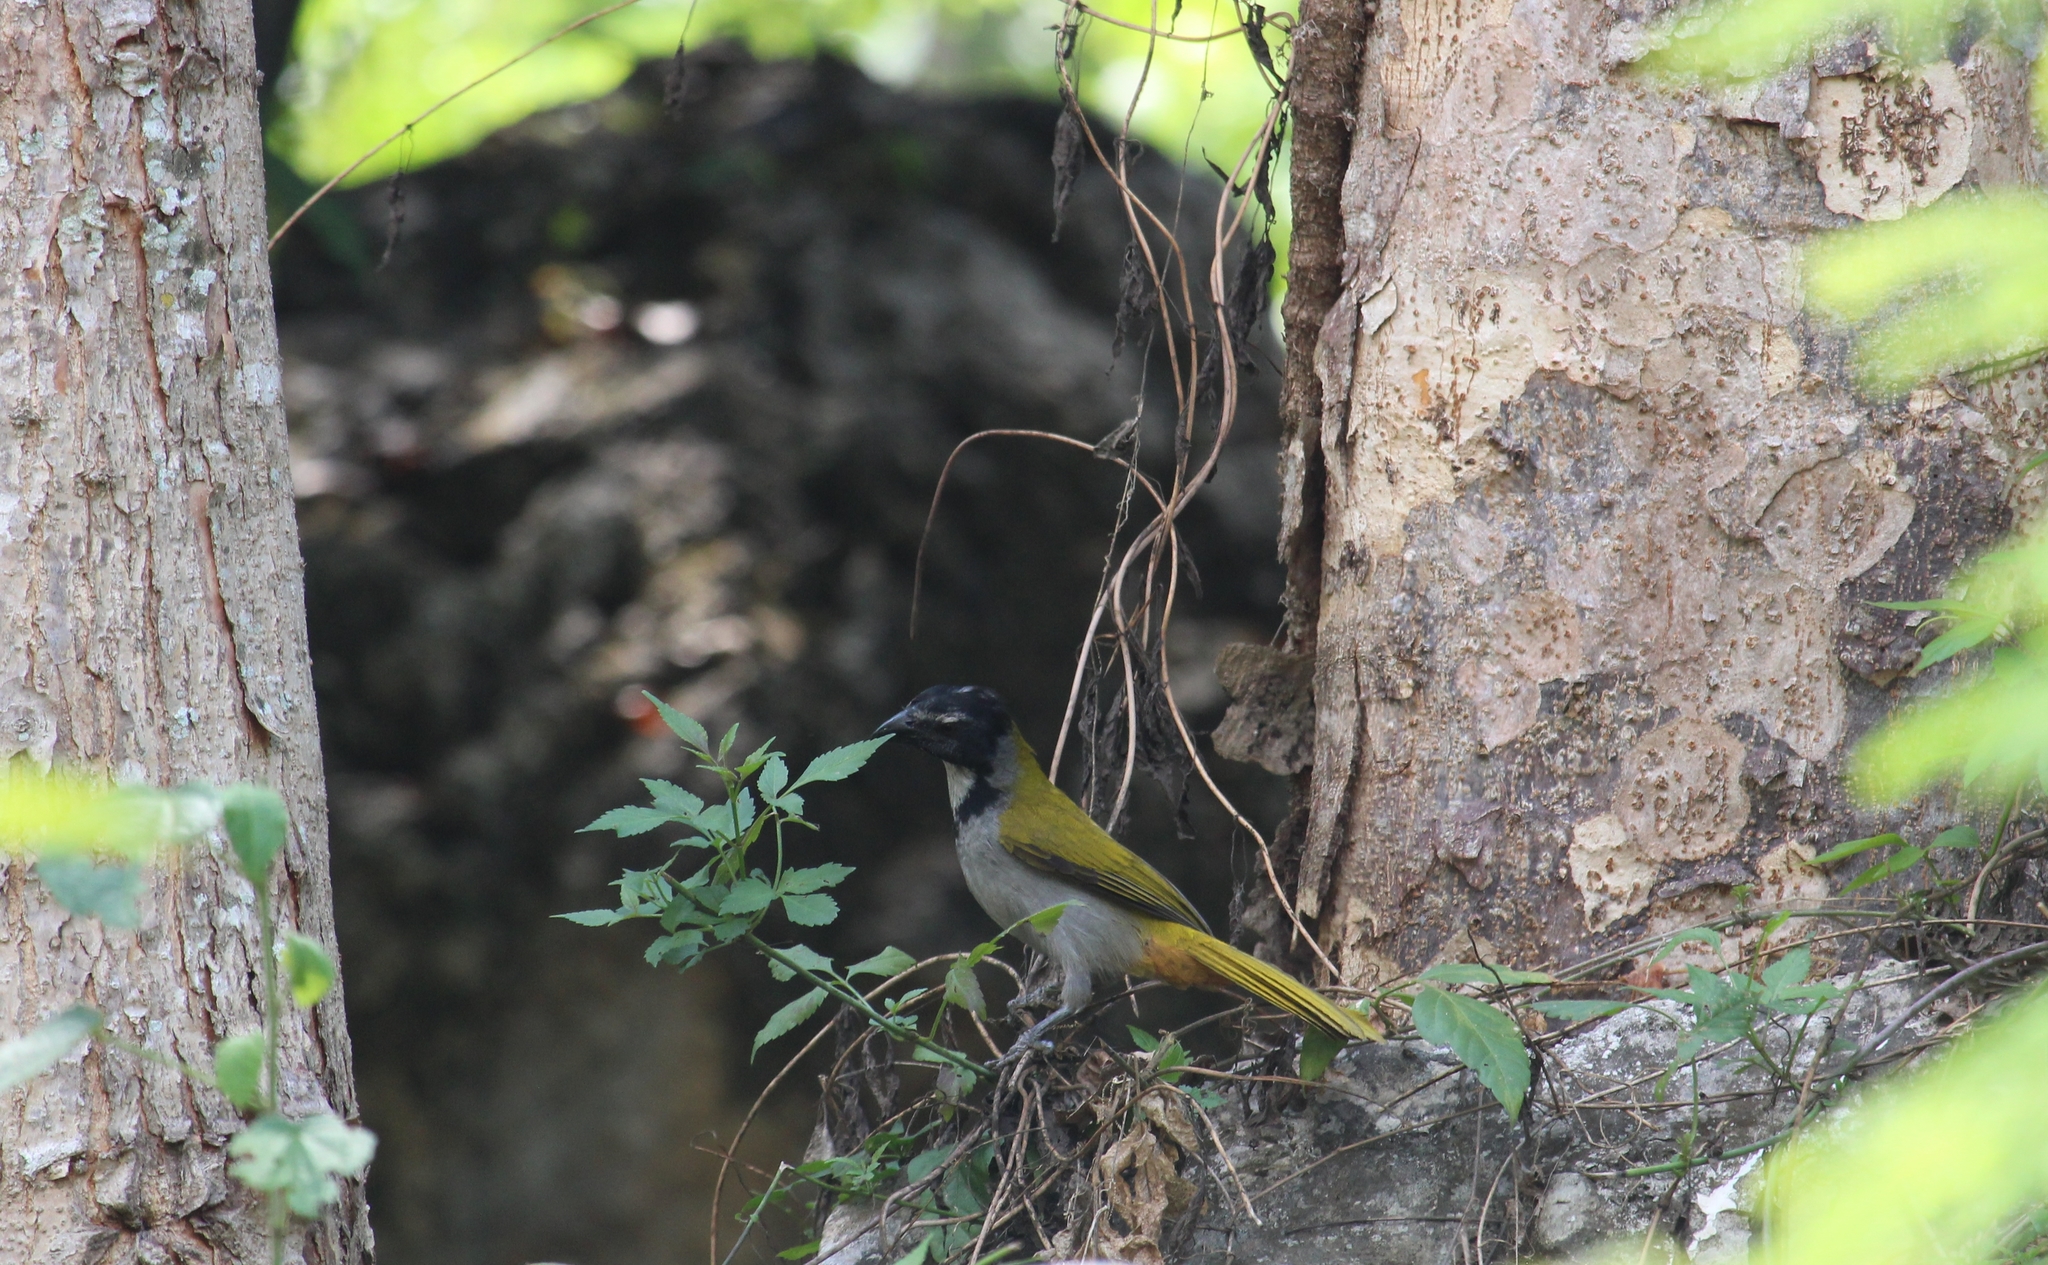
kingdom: Animalia
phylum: Chordata
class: Aves
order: Passeriformes
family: Thraupidae
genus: Saltator
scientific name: Saltator atriceps
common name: Black-headed saltator
